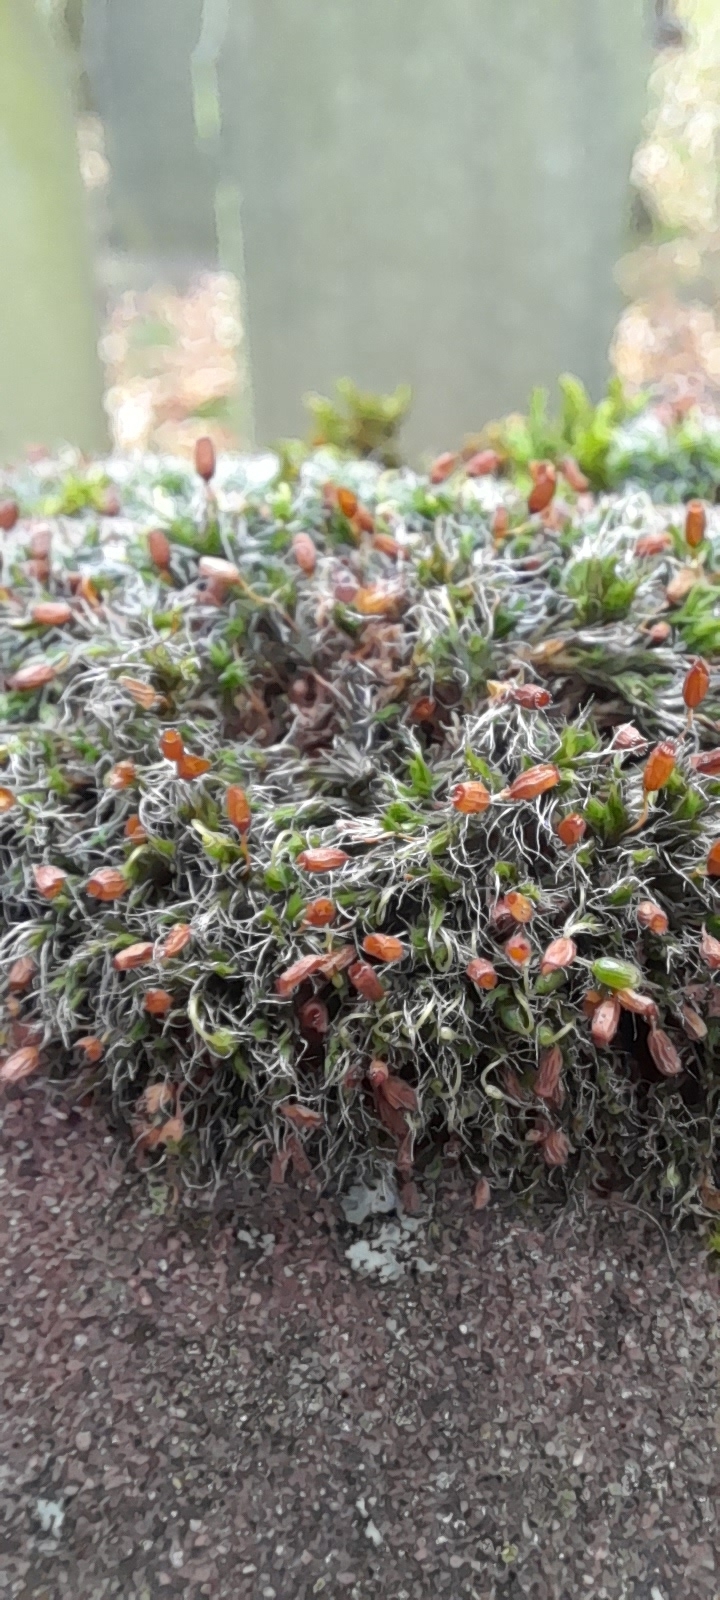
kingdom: Plantae
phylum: Bryophyta
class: Bryopsida
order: Grimmiales
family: Grimmiaceae
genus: Grimmia
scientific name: Grimmia pulvinata
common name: Grey-cushioned grimmia
